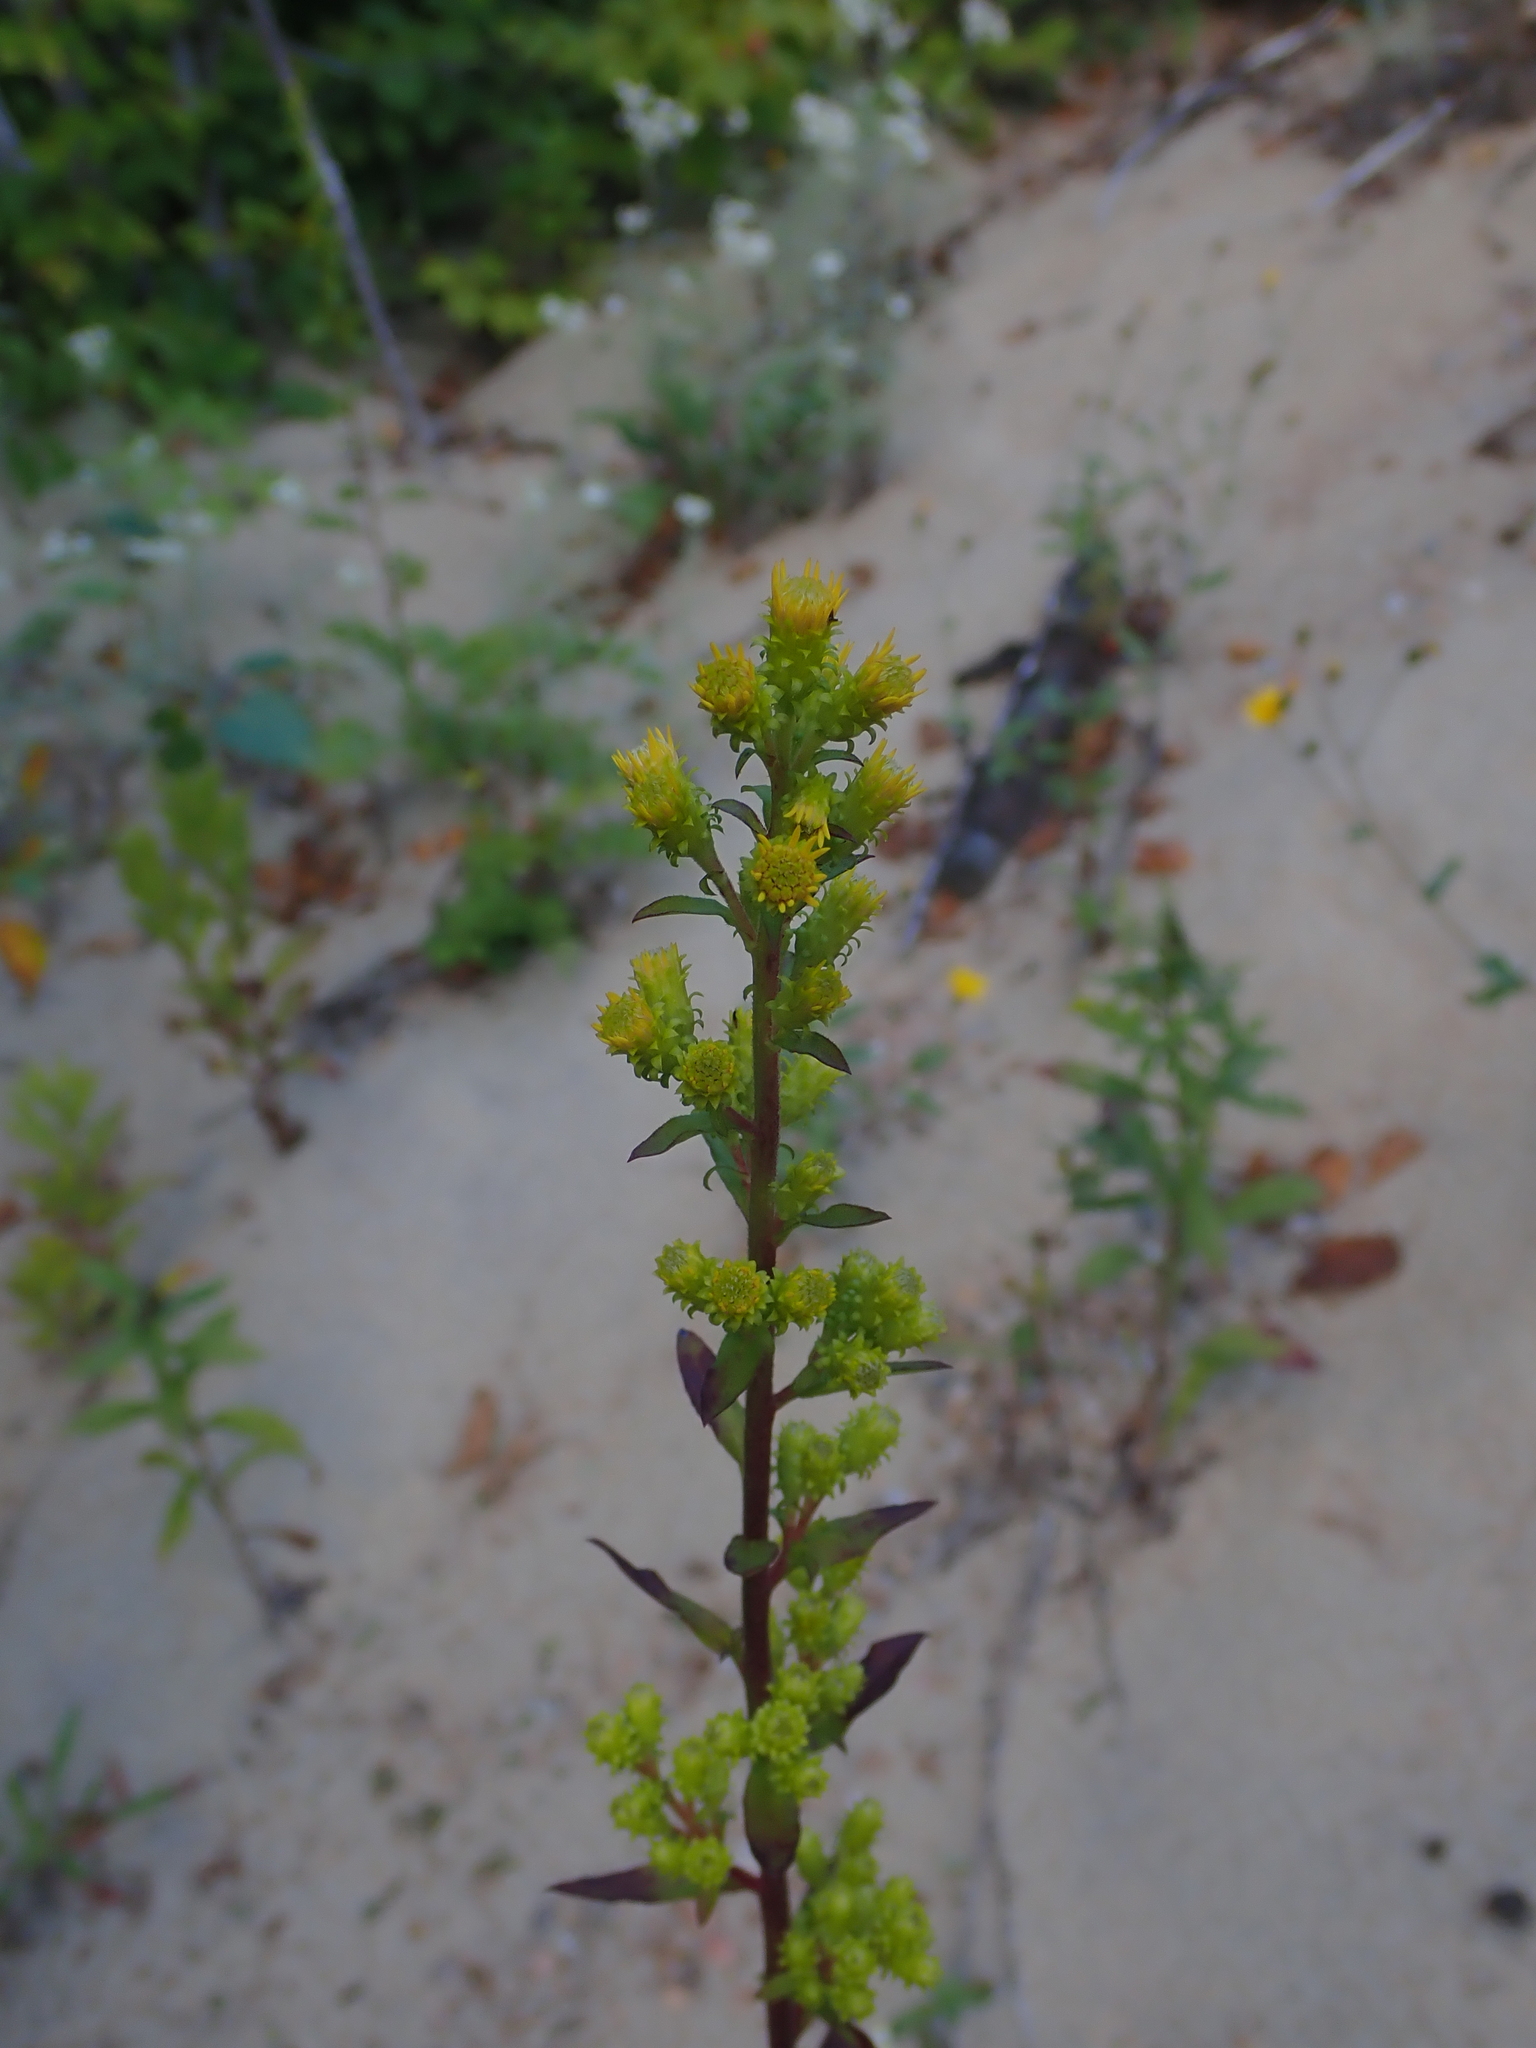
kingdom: Plantae
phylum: Tracheophyta
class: Magnoliopsida
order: Asterales
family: Asteraceae
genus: Solidago
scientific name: Solidago squarrosa
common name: Stout goldenrod
